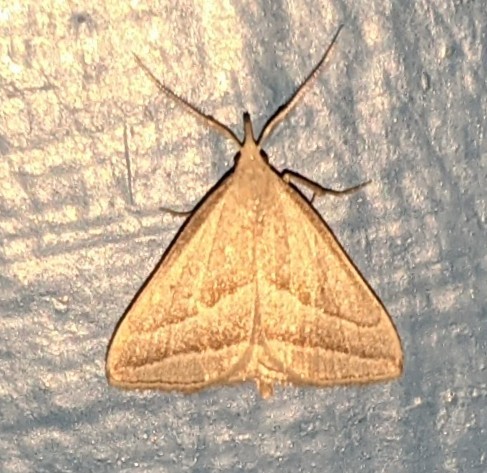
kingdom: Animalia
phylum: Arthropoda
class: Insecta
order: Lepidoptera
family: Erebidae
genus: Macrochilo
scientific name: Macrochilo absorptalis
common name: Slant-lined owlet
